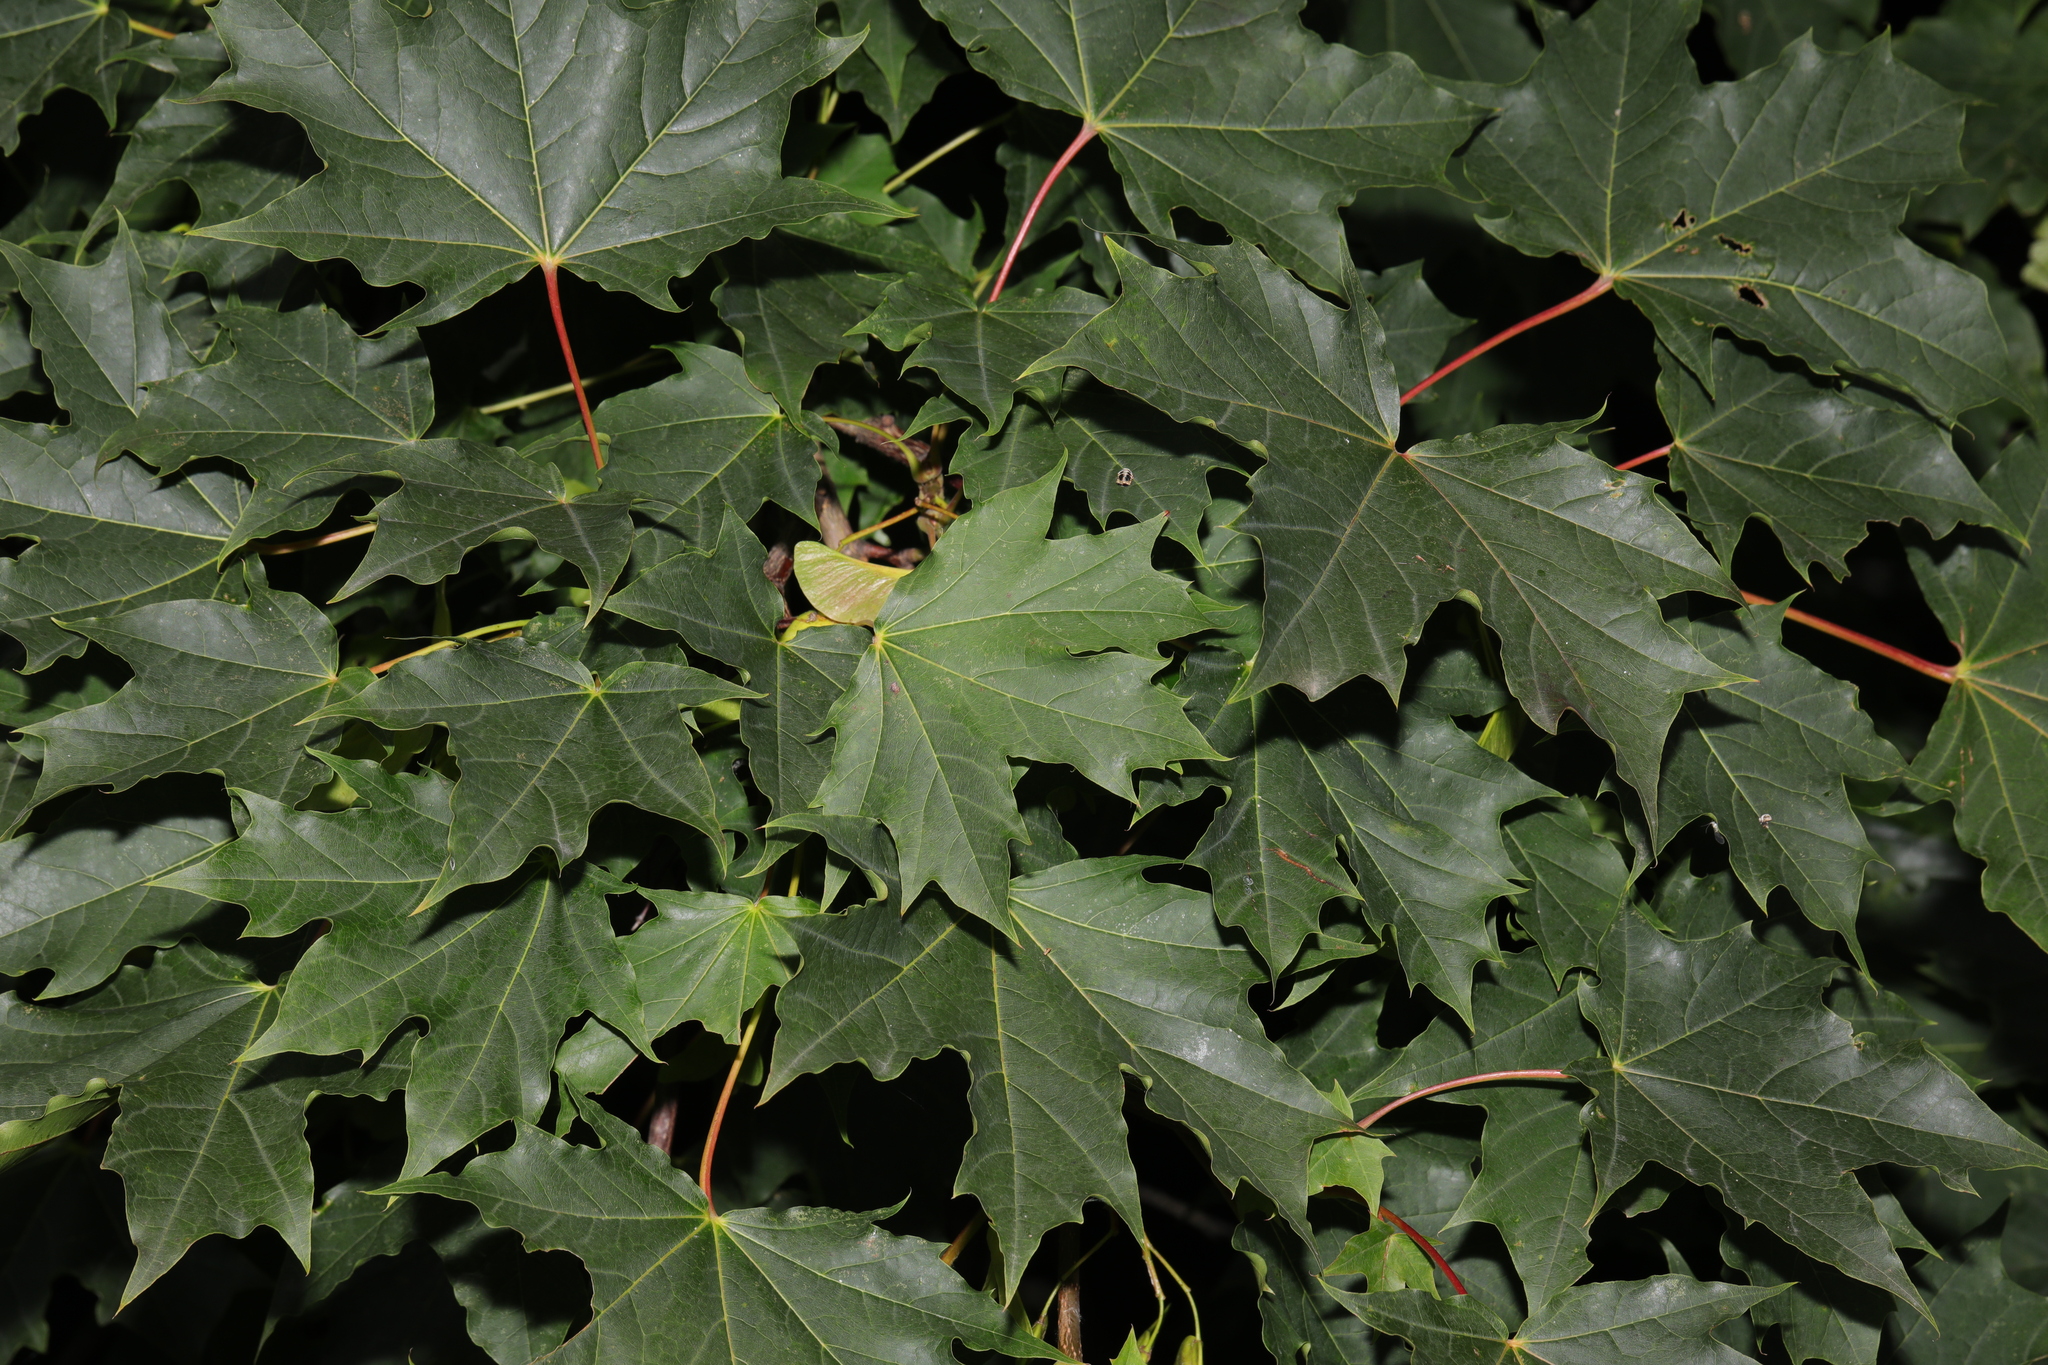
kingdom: Plantae
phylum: Tracheophyta
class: Magnoliopsida
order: Sapindales
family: Sapindaceae
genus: Acer
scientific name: Acer platanoides
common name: Norway maple
